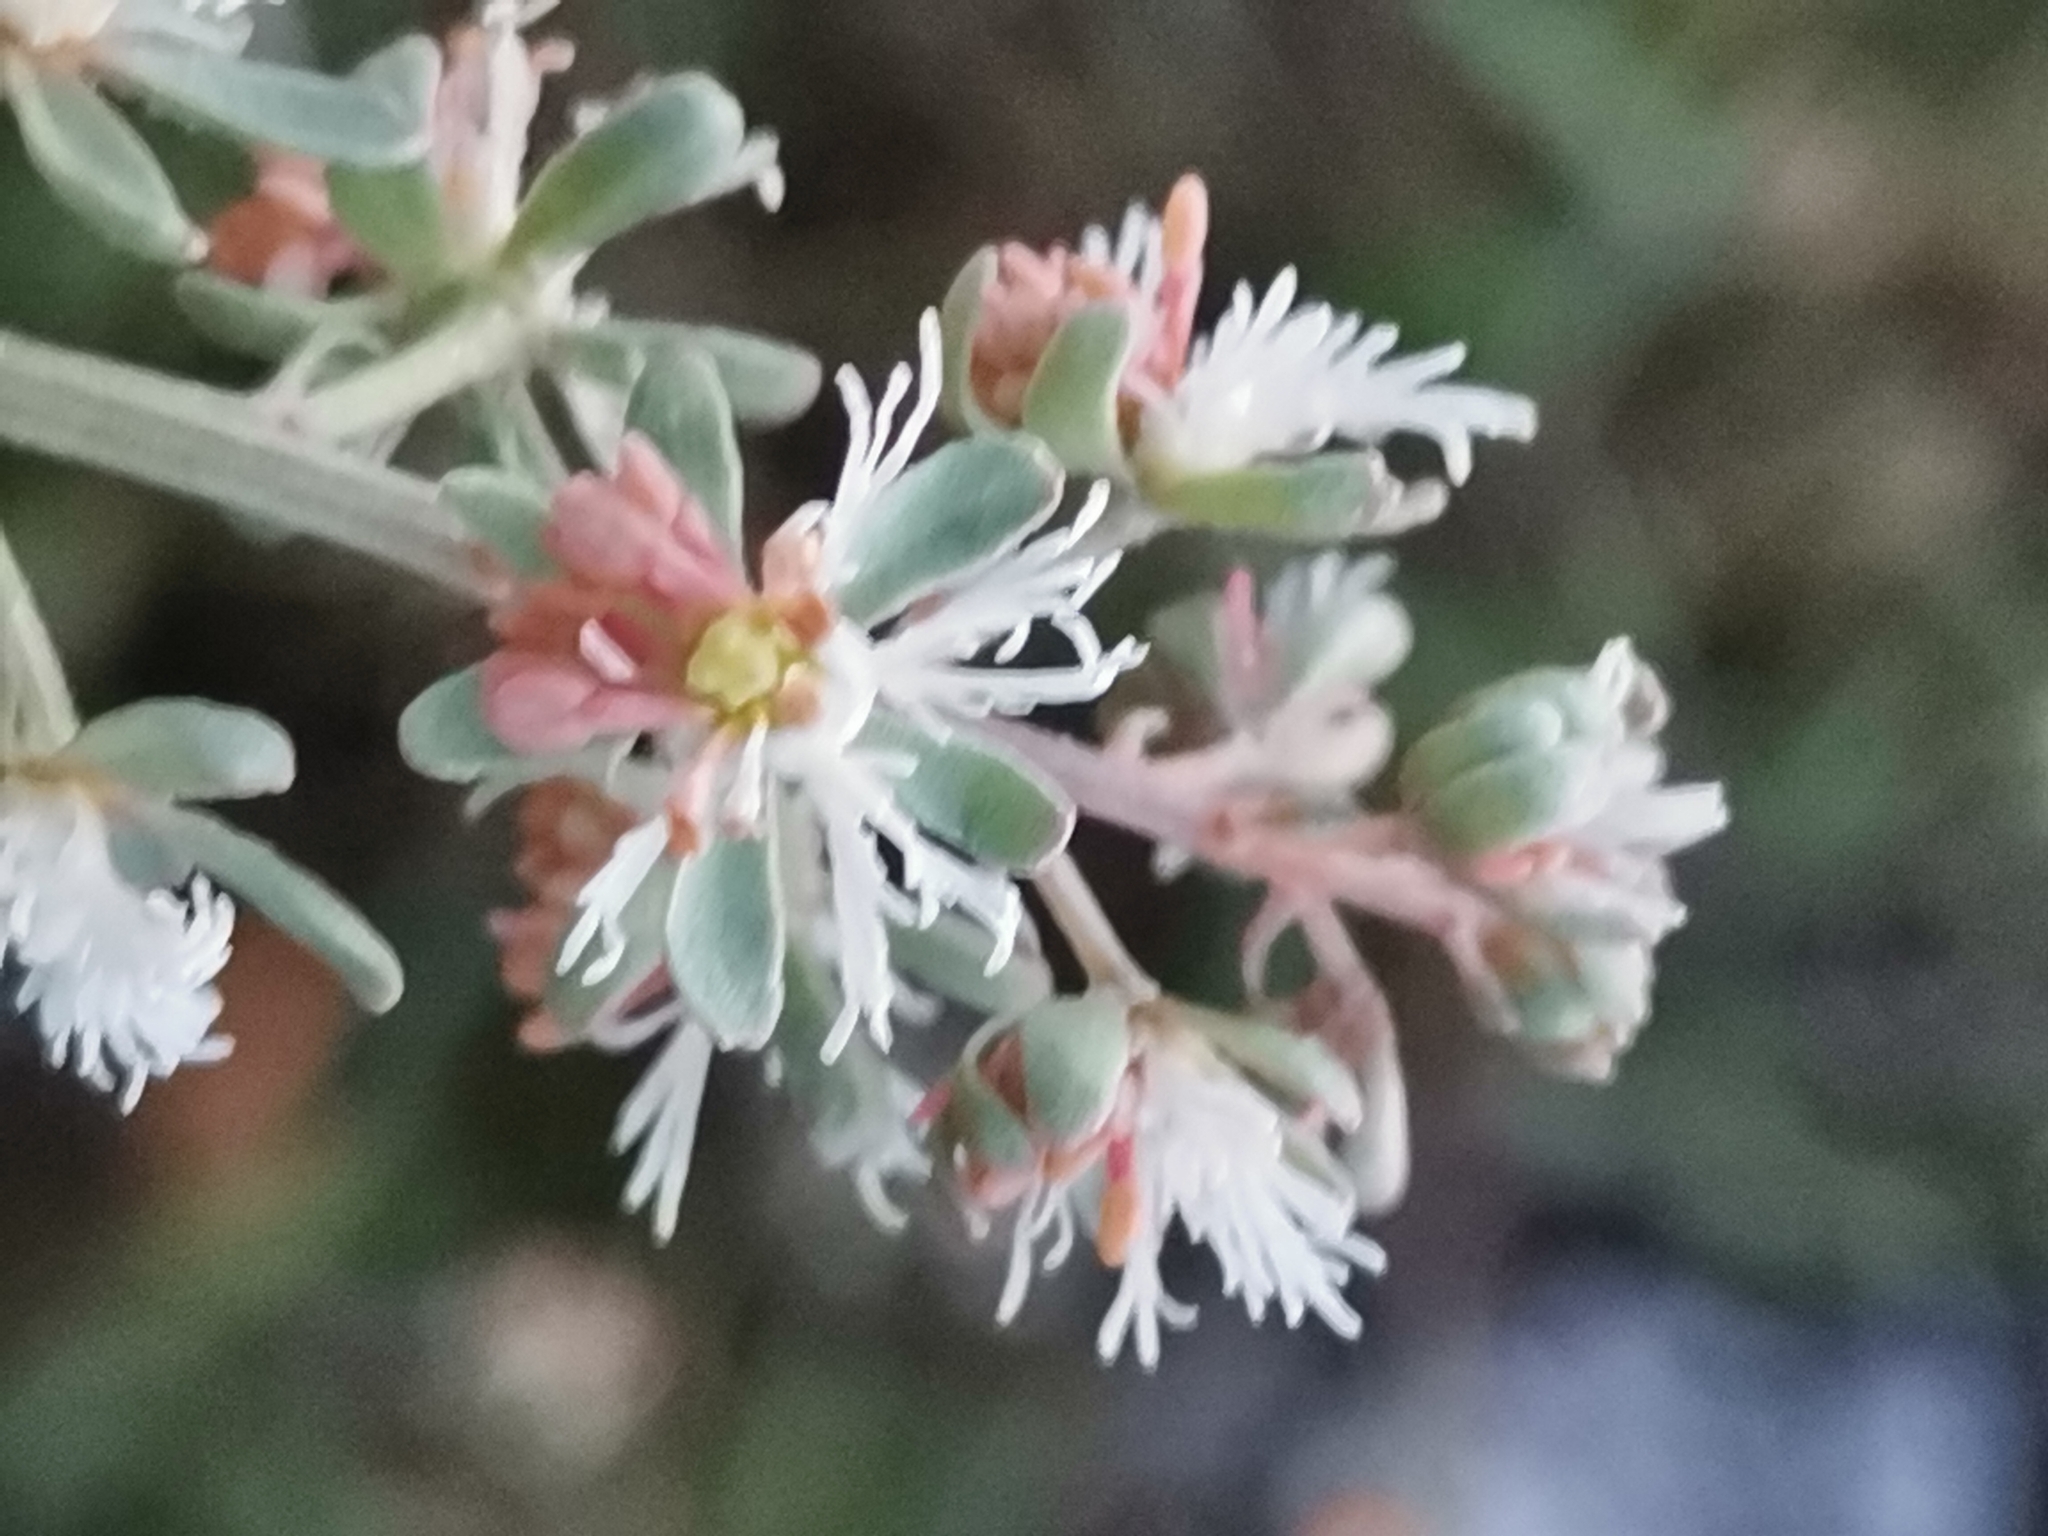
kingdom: Plantae
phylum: Tracheophyta
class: Magnoliopsida
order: Brassicales
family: Resedaceae
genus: Reseda
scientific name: Reseda phyteuma
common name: Corn mignonette
